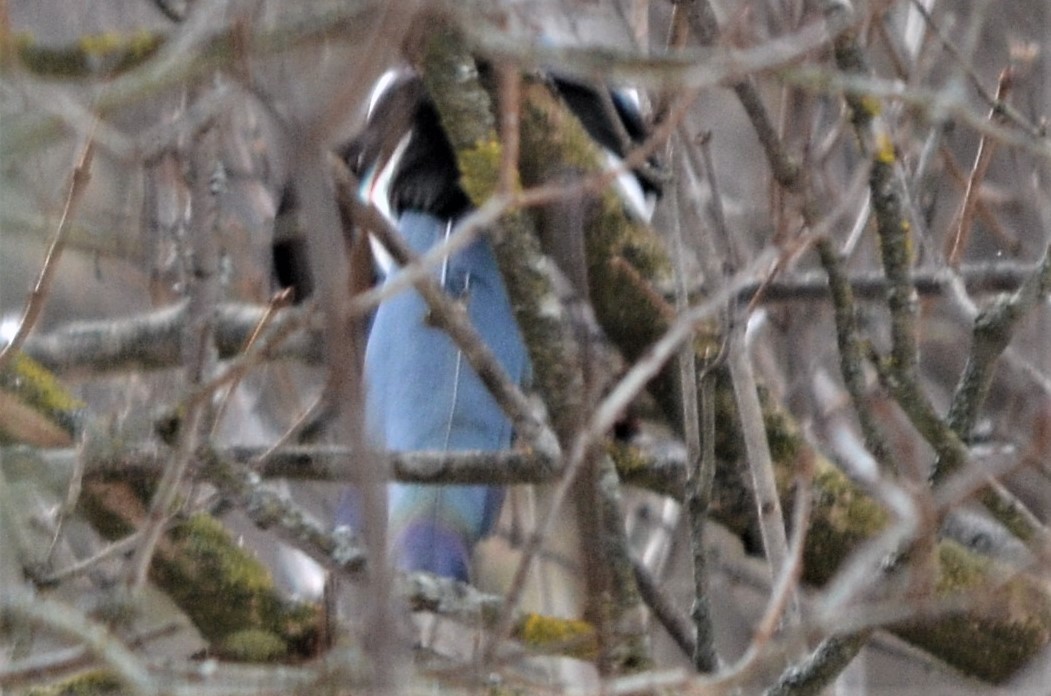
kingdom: Animalia
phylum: Chordata
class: Aves
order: Passeriformes
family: Corvidae
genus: Pica
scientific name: Pica pica
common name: Eurasian magpie
